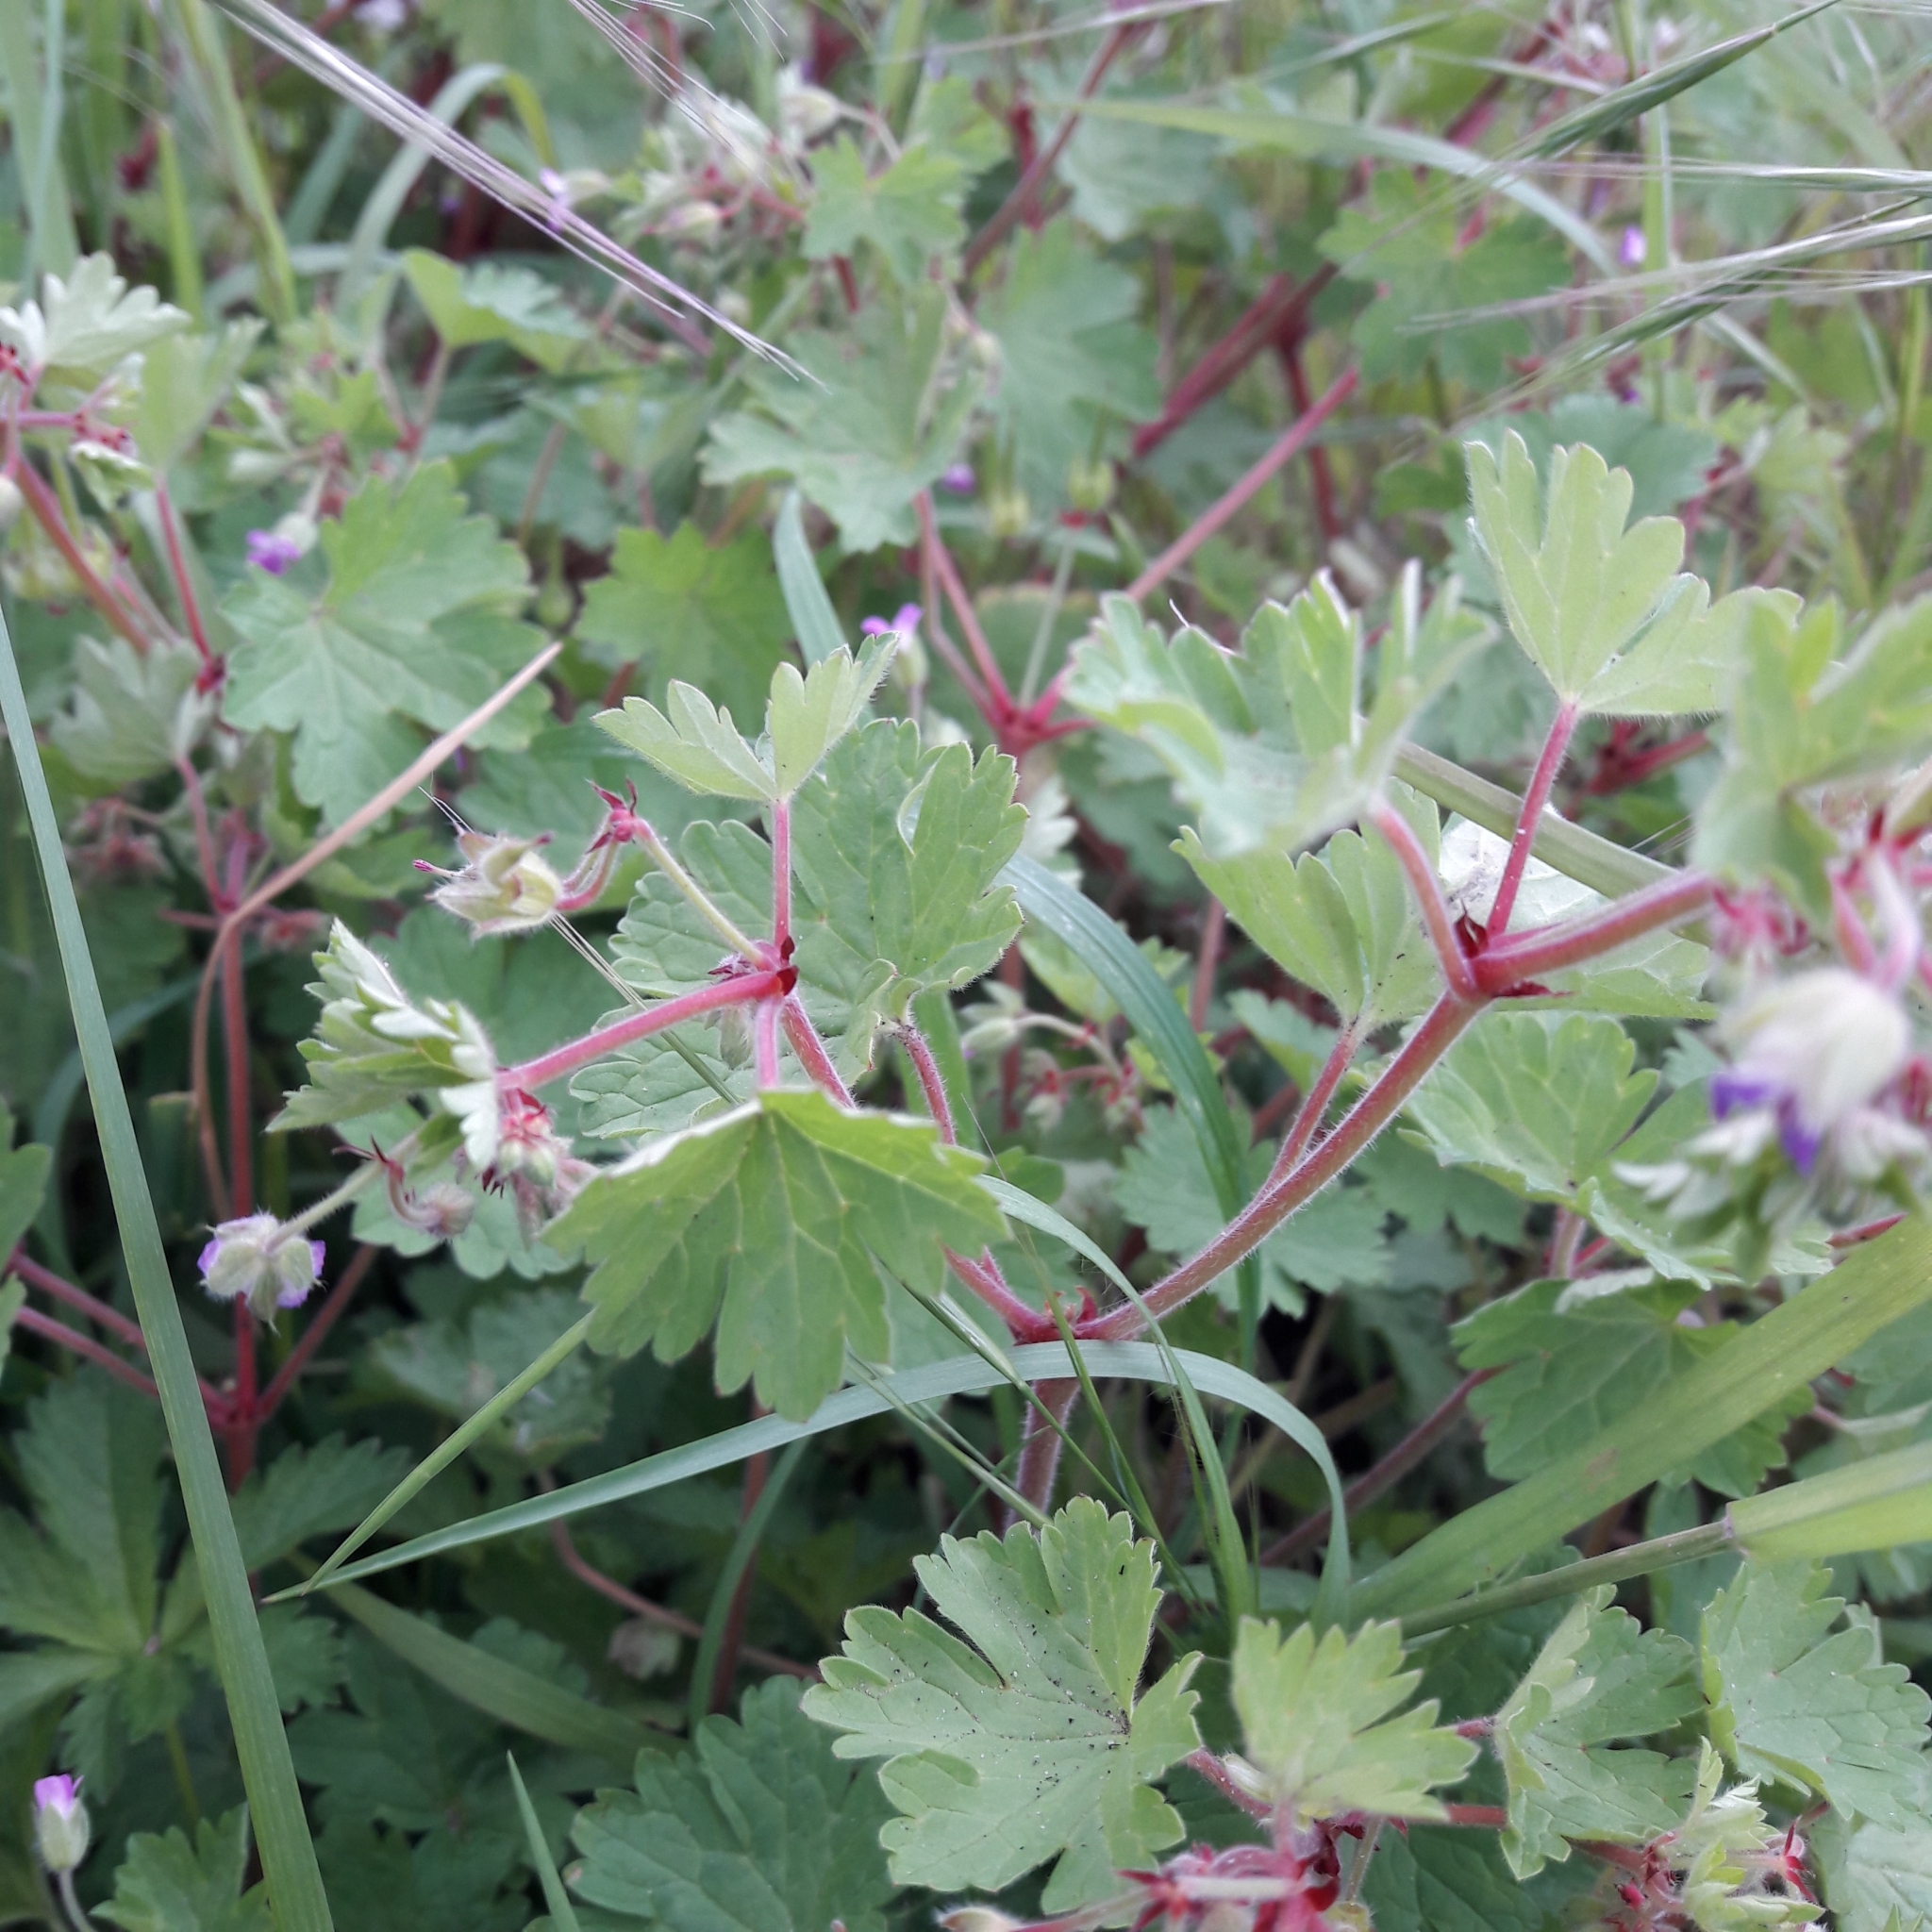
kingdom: Plantae
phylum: Tracheophyta
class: Magnoliopsida
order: Geraniales
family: Geraniaceae
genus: Geranium
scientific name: Geranium rotundifolium
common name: Round-leaved crane's-bill
